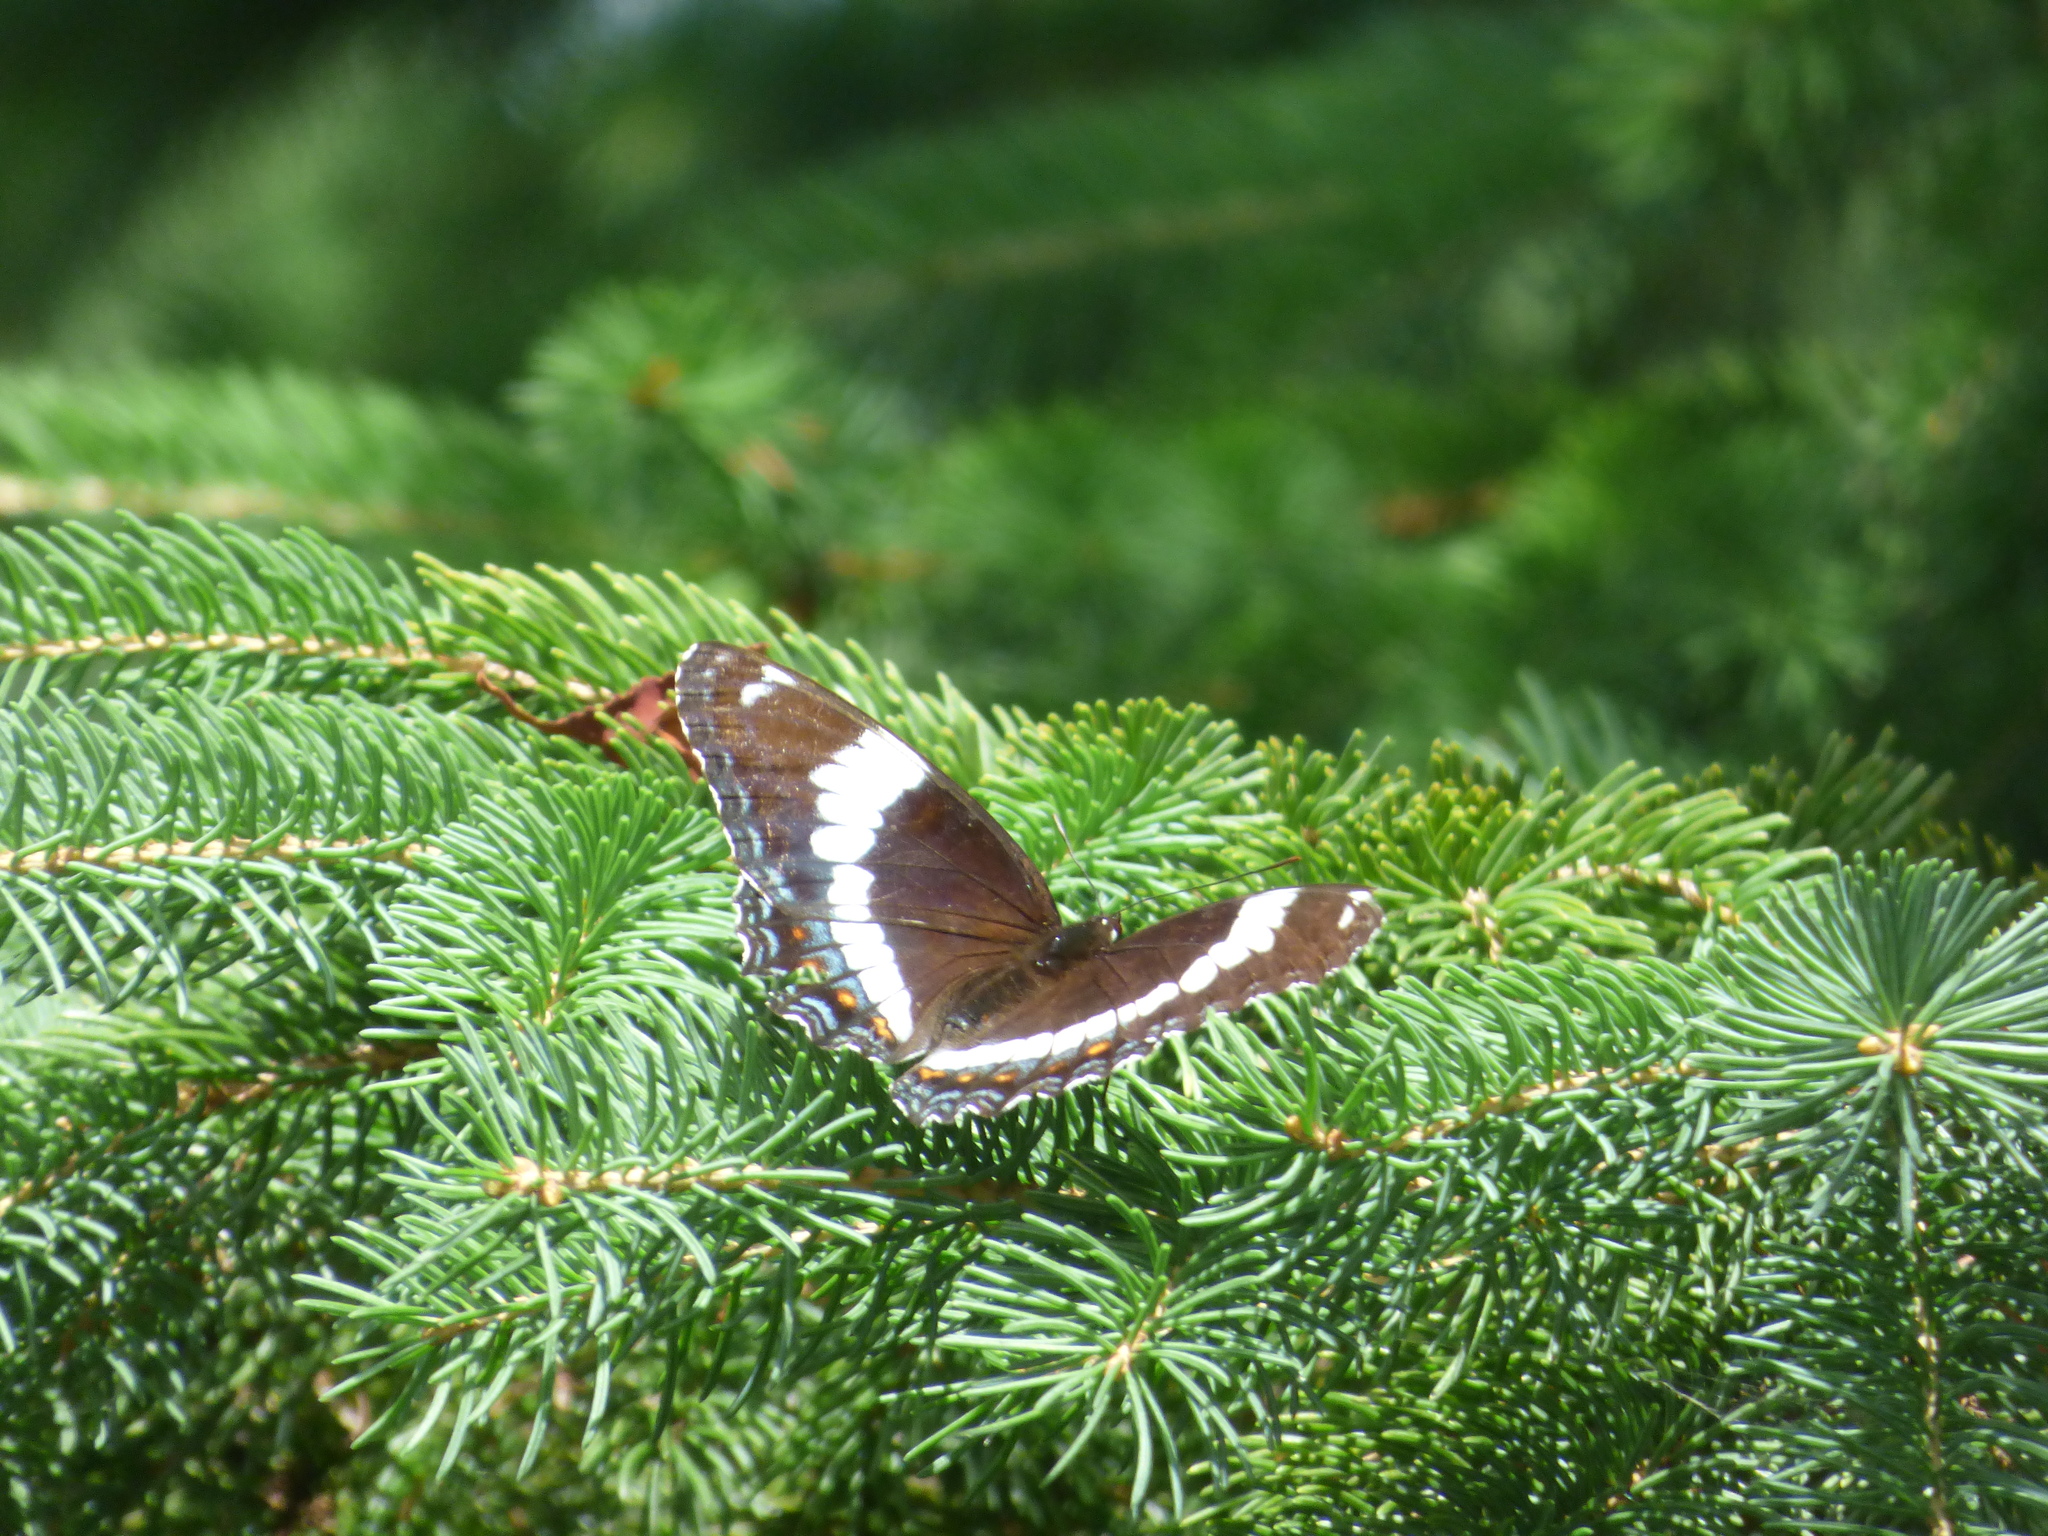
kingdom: Animalia
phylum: Arthropoda
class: Insecta
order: Lepidoptera
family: Nymphalidae
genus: Limenitis
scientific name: Limenitis arthemis
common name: Red-spotted admiral
